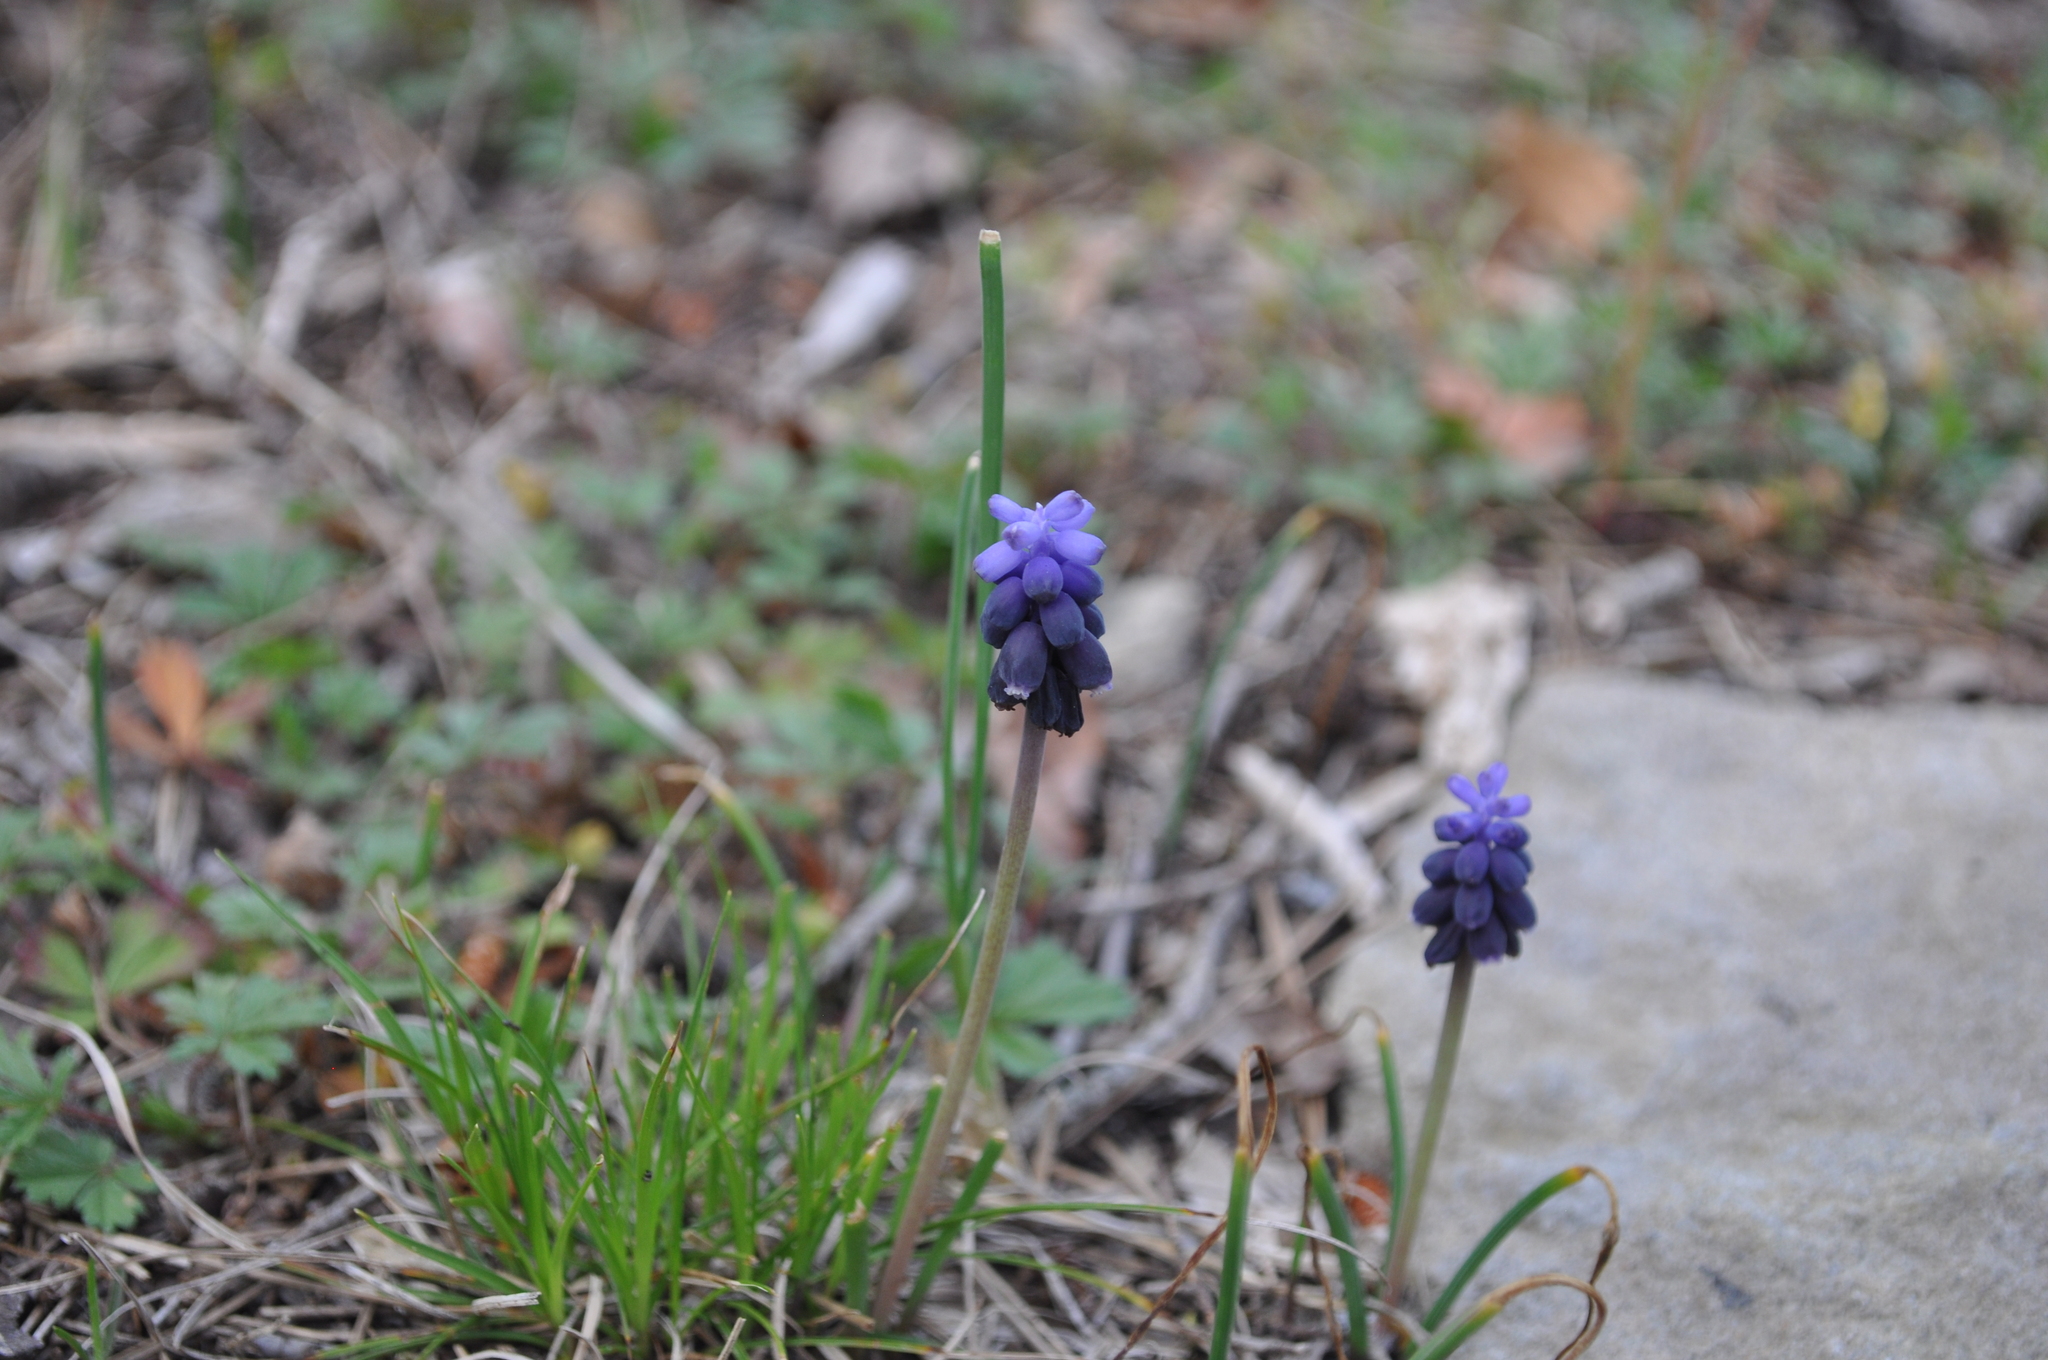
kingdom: Plantae
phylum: Tracheophyta
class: Liliopsida
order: Asparagales
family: Asparagaceae
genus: Muscari
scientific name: Muscari neglectum
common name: Grape-hyacinth
